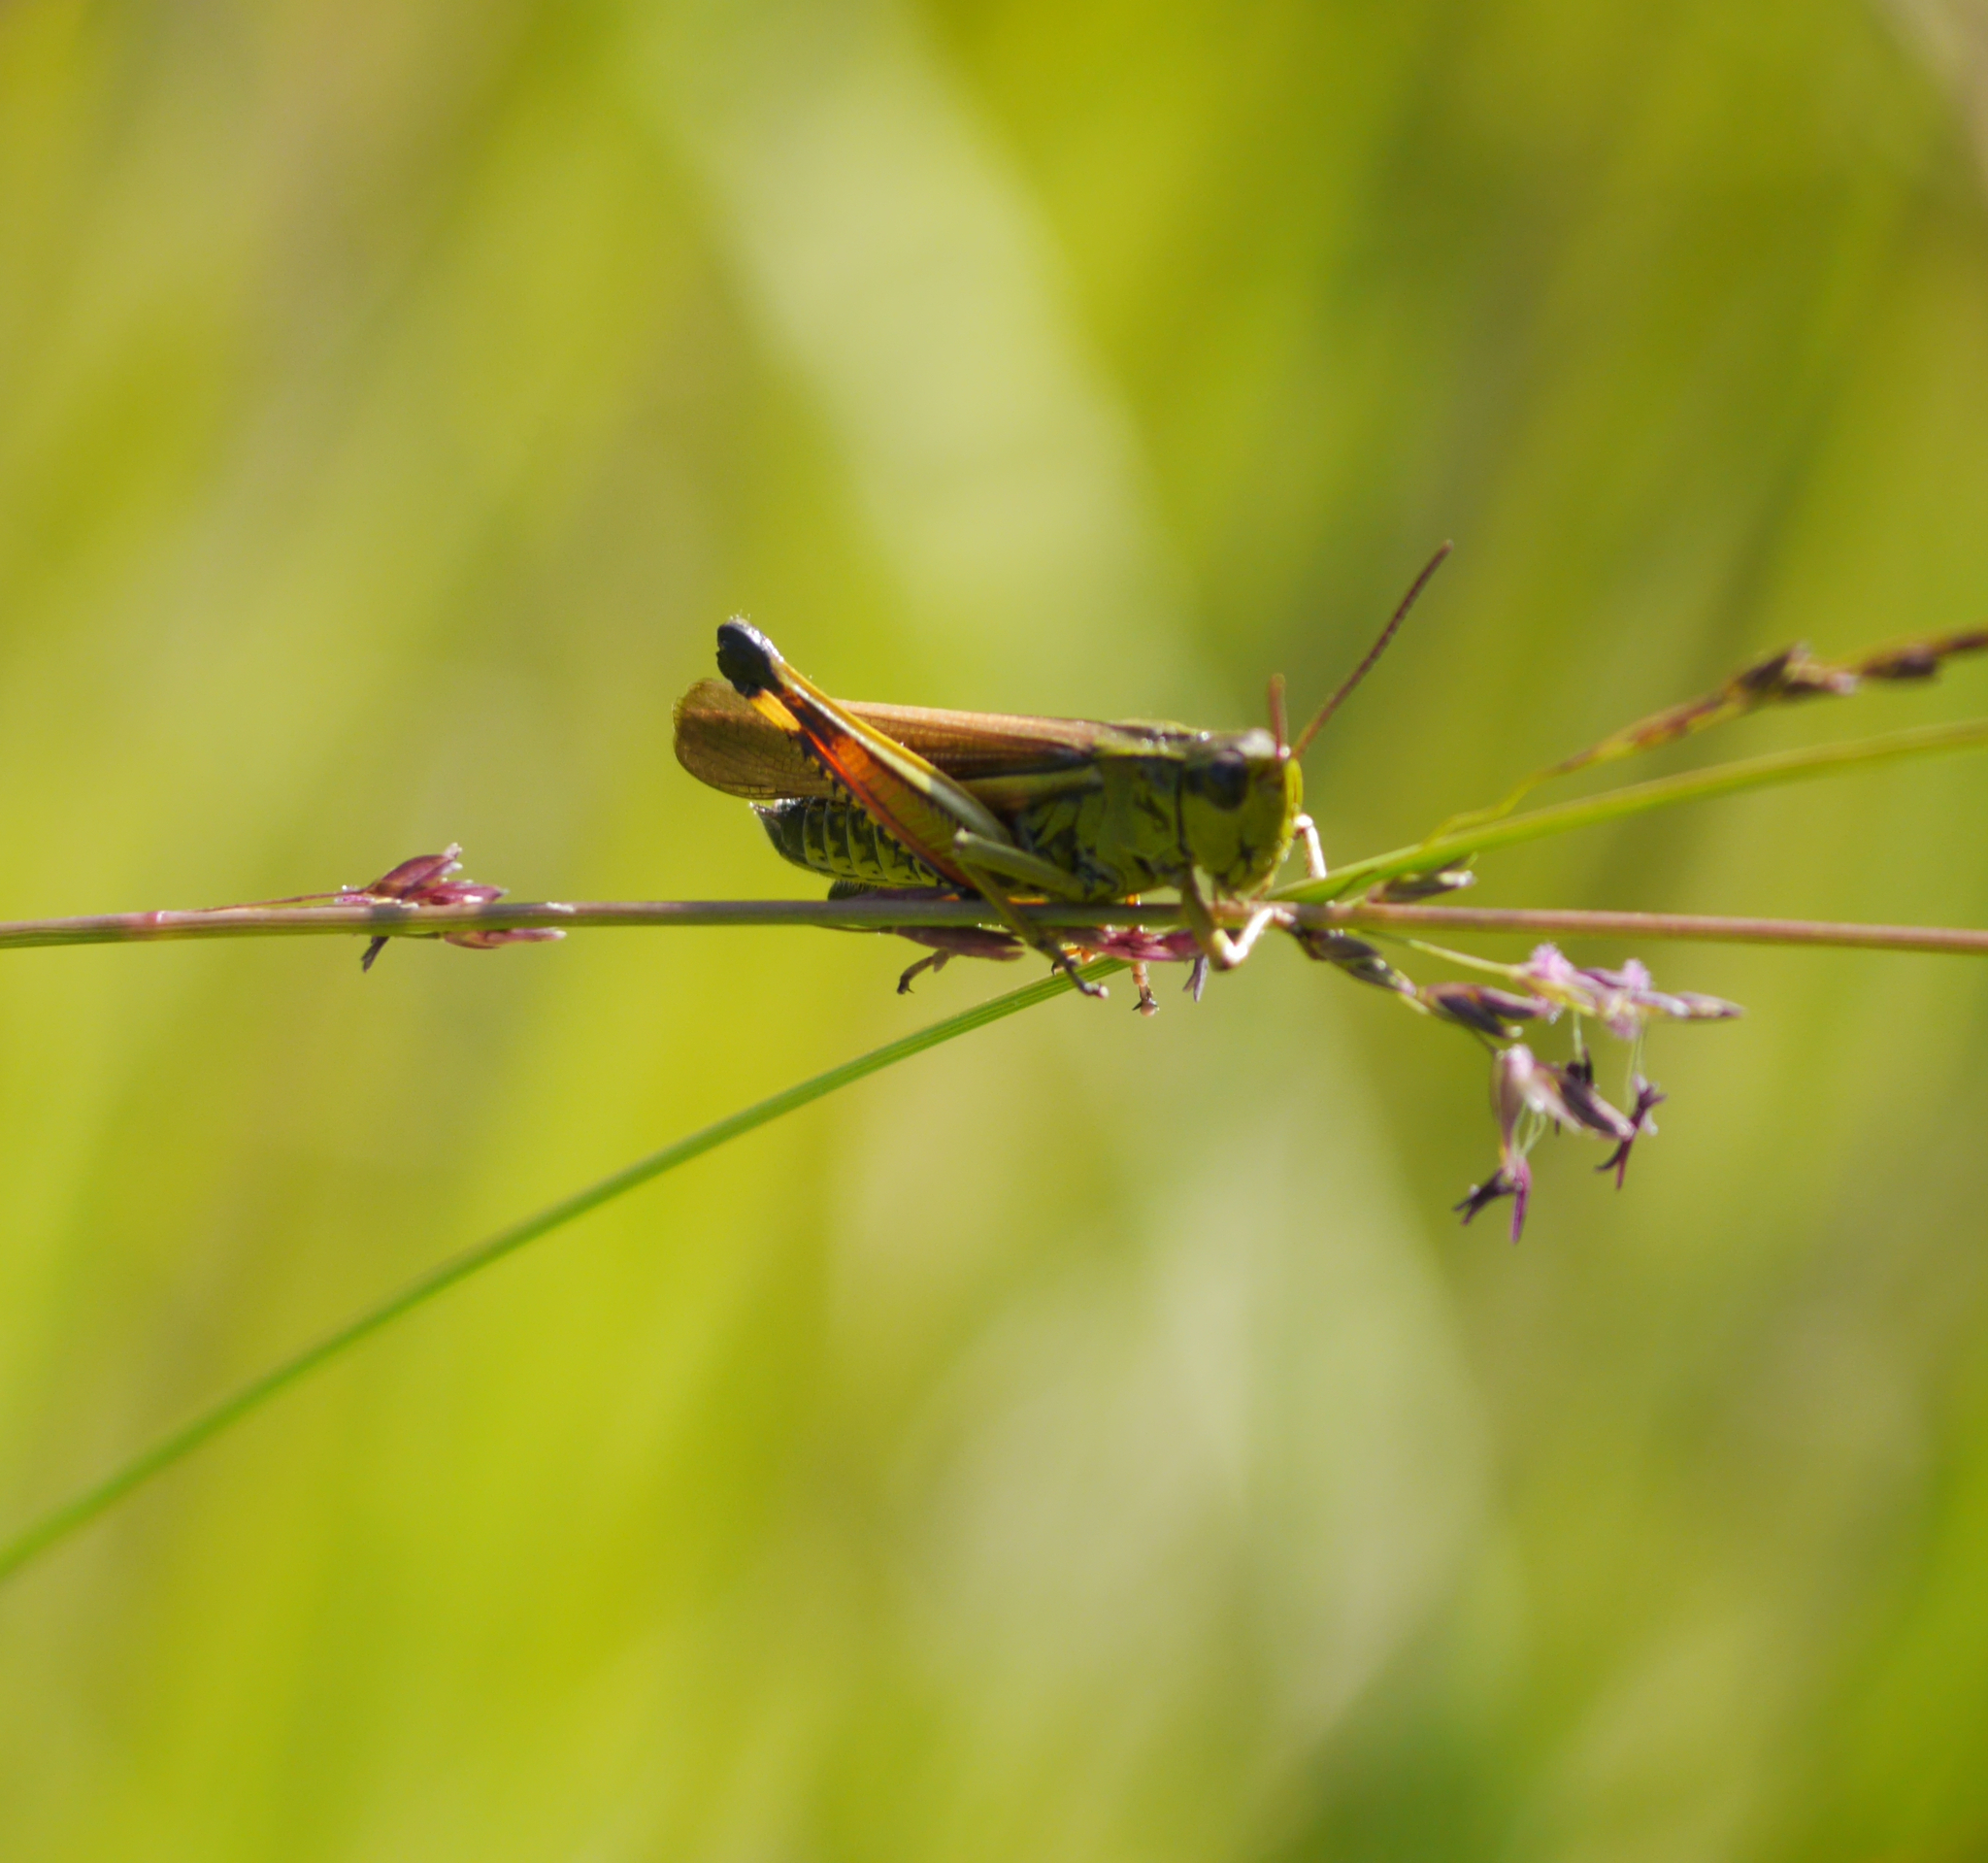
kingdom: Animalia
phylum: Arthropoda
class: Insecta
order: Orthoptera
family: Acrididae
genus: Stethophyma
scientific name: Stethophyma grossum
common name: Large marsh grasshopper
